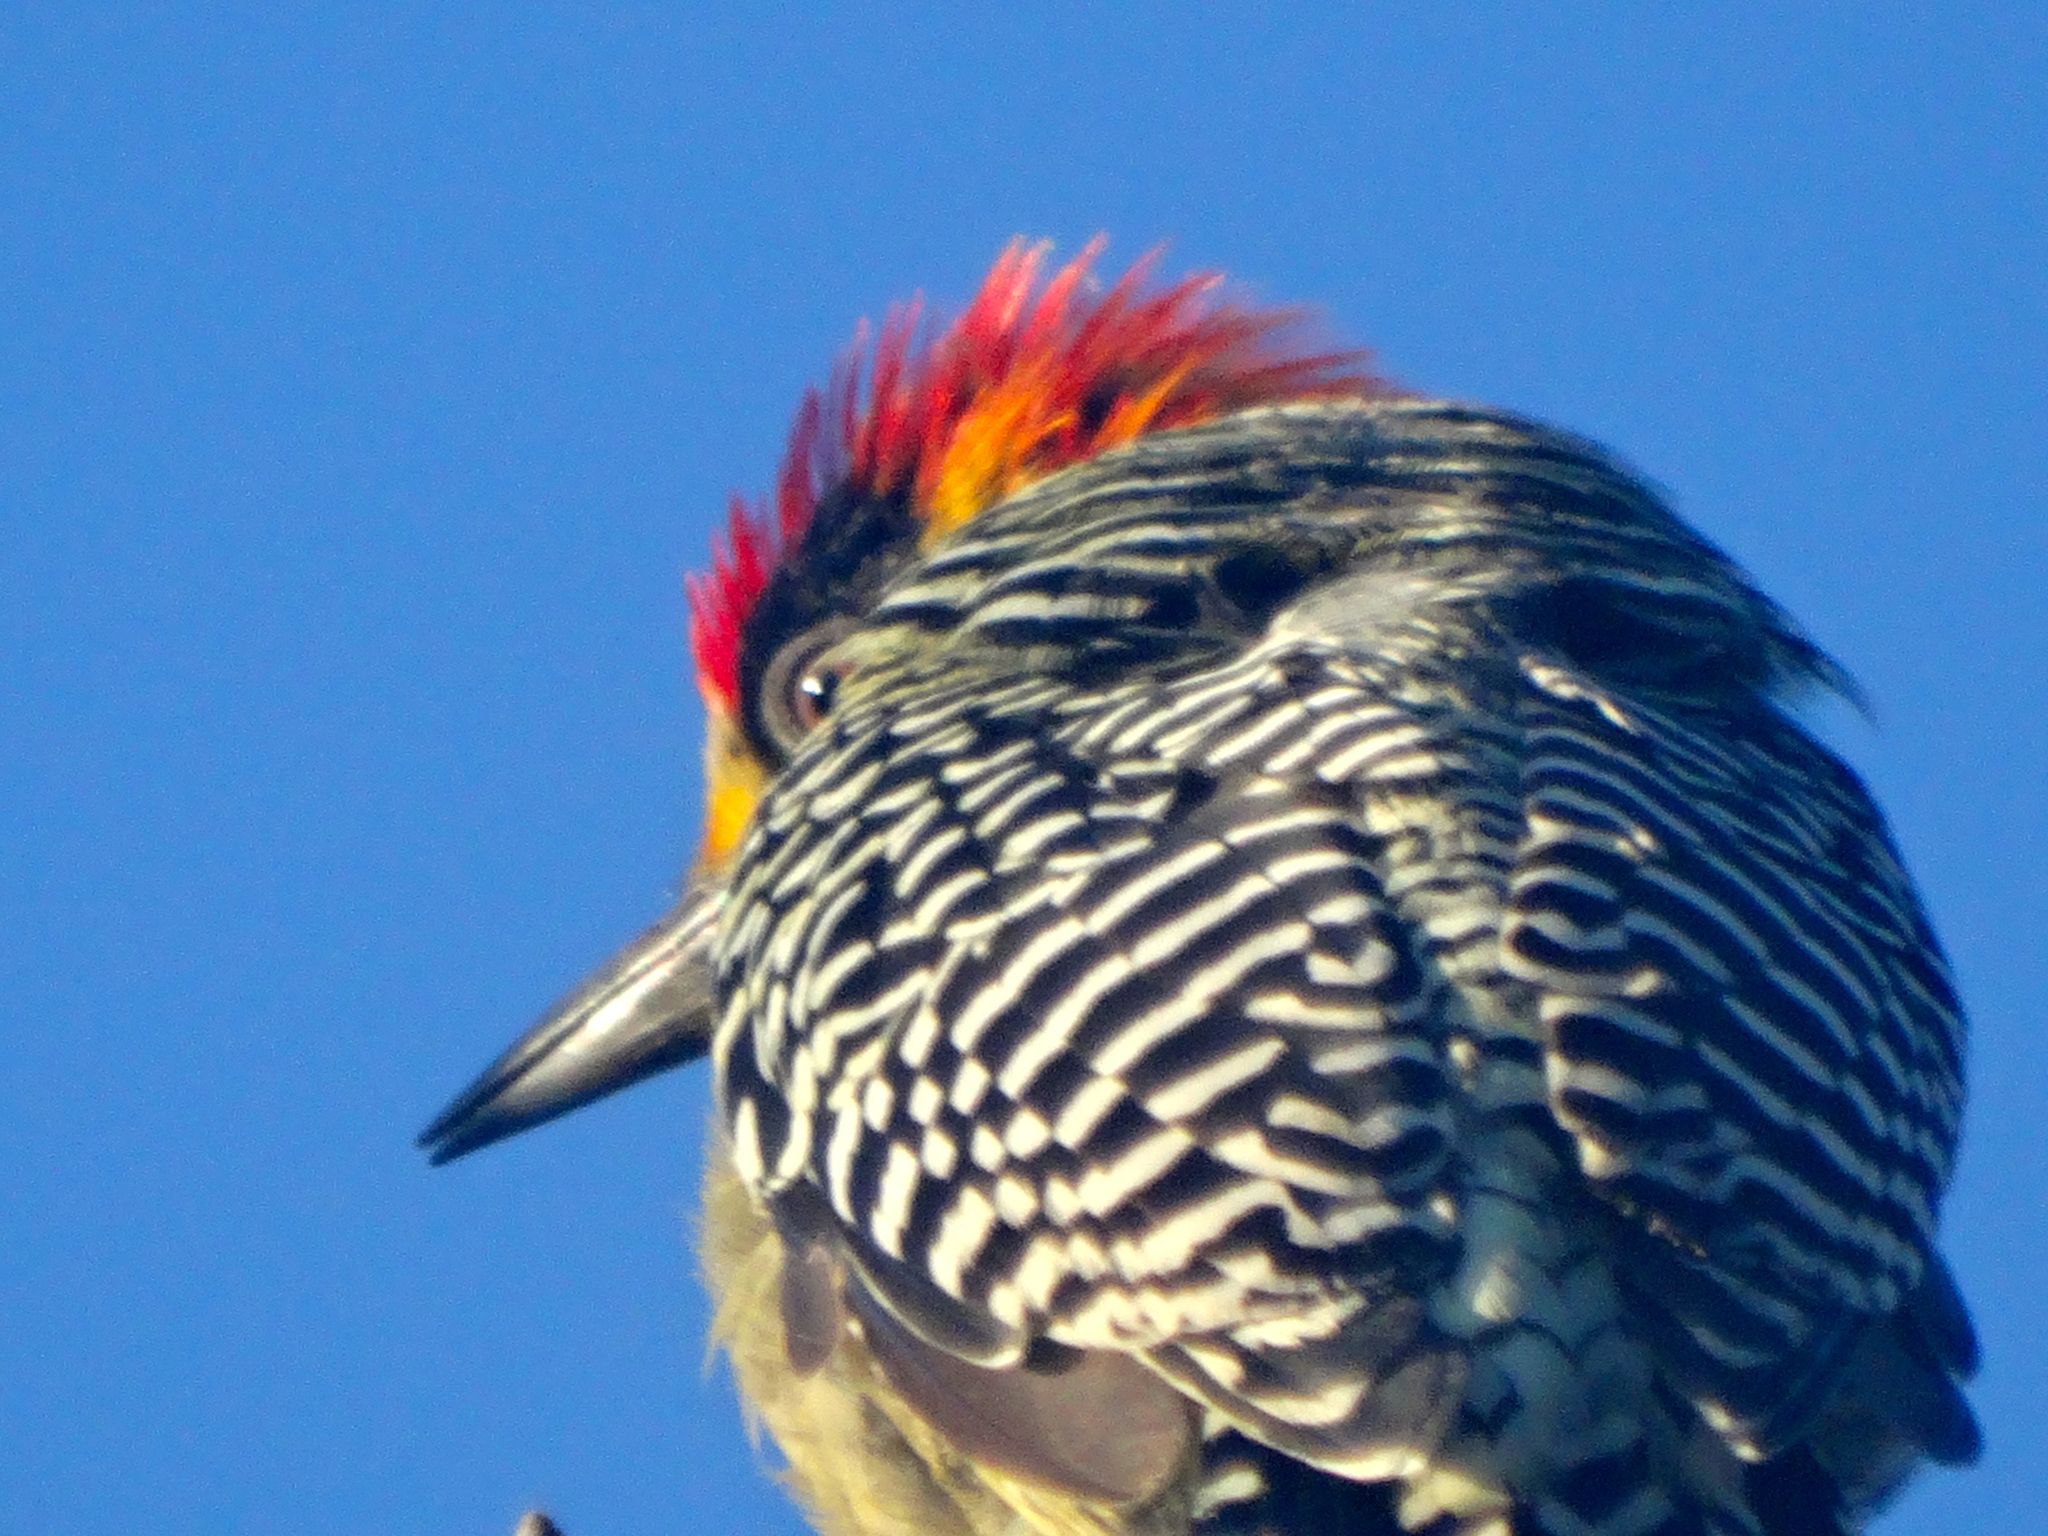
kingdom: Animalia
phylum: Chordata
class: Aves
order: Piciformes
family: Picidae
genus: Melanerpes
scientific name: Melanerpes chrysogenys
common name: Golden-cheeked woodpecker
